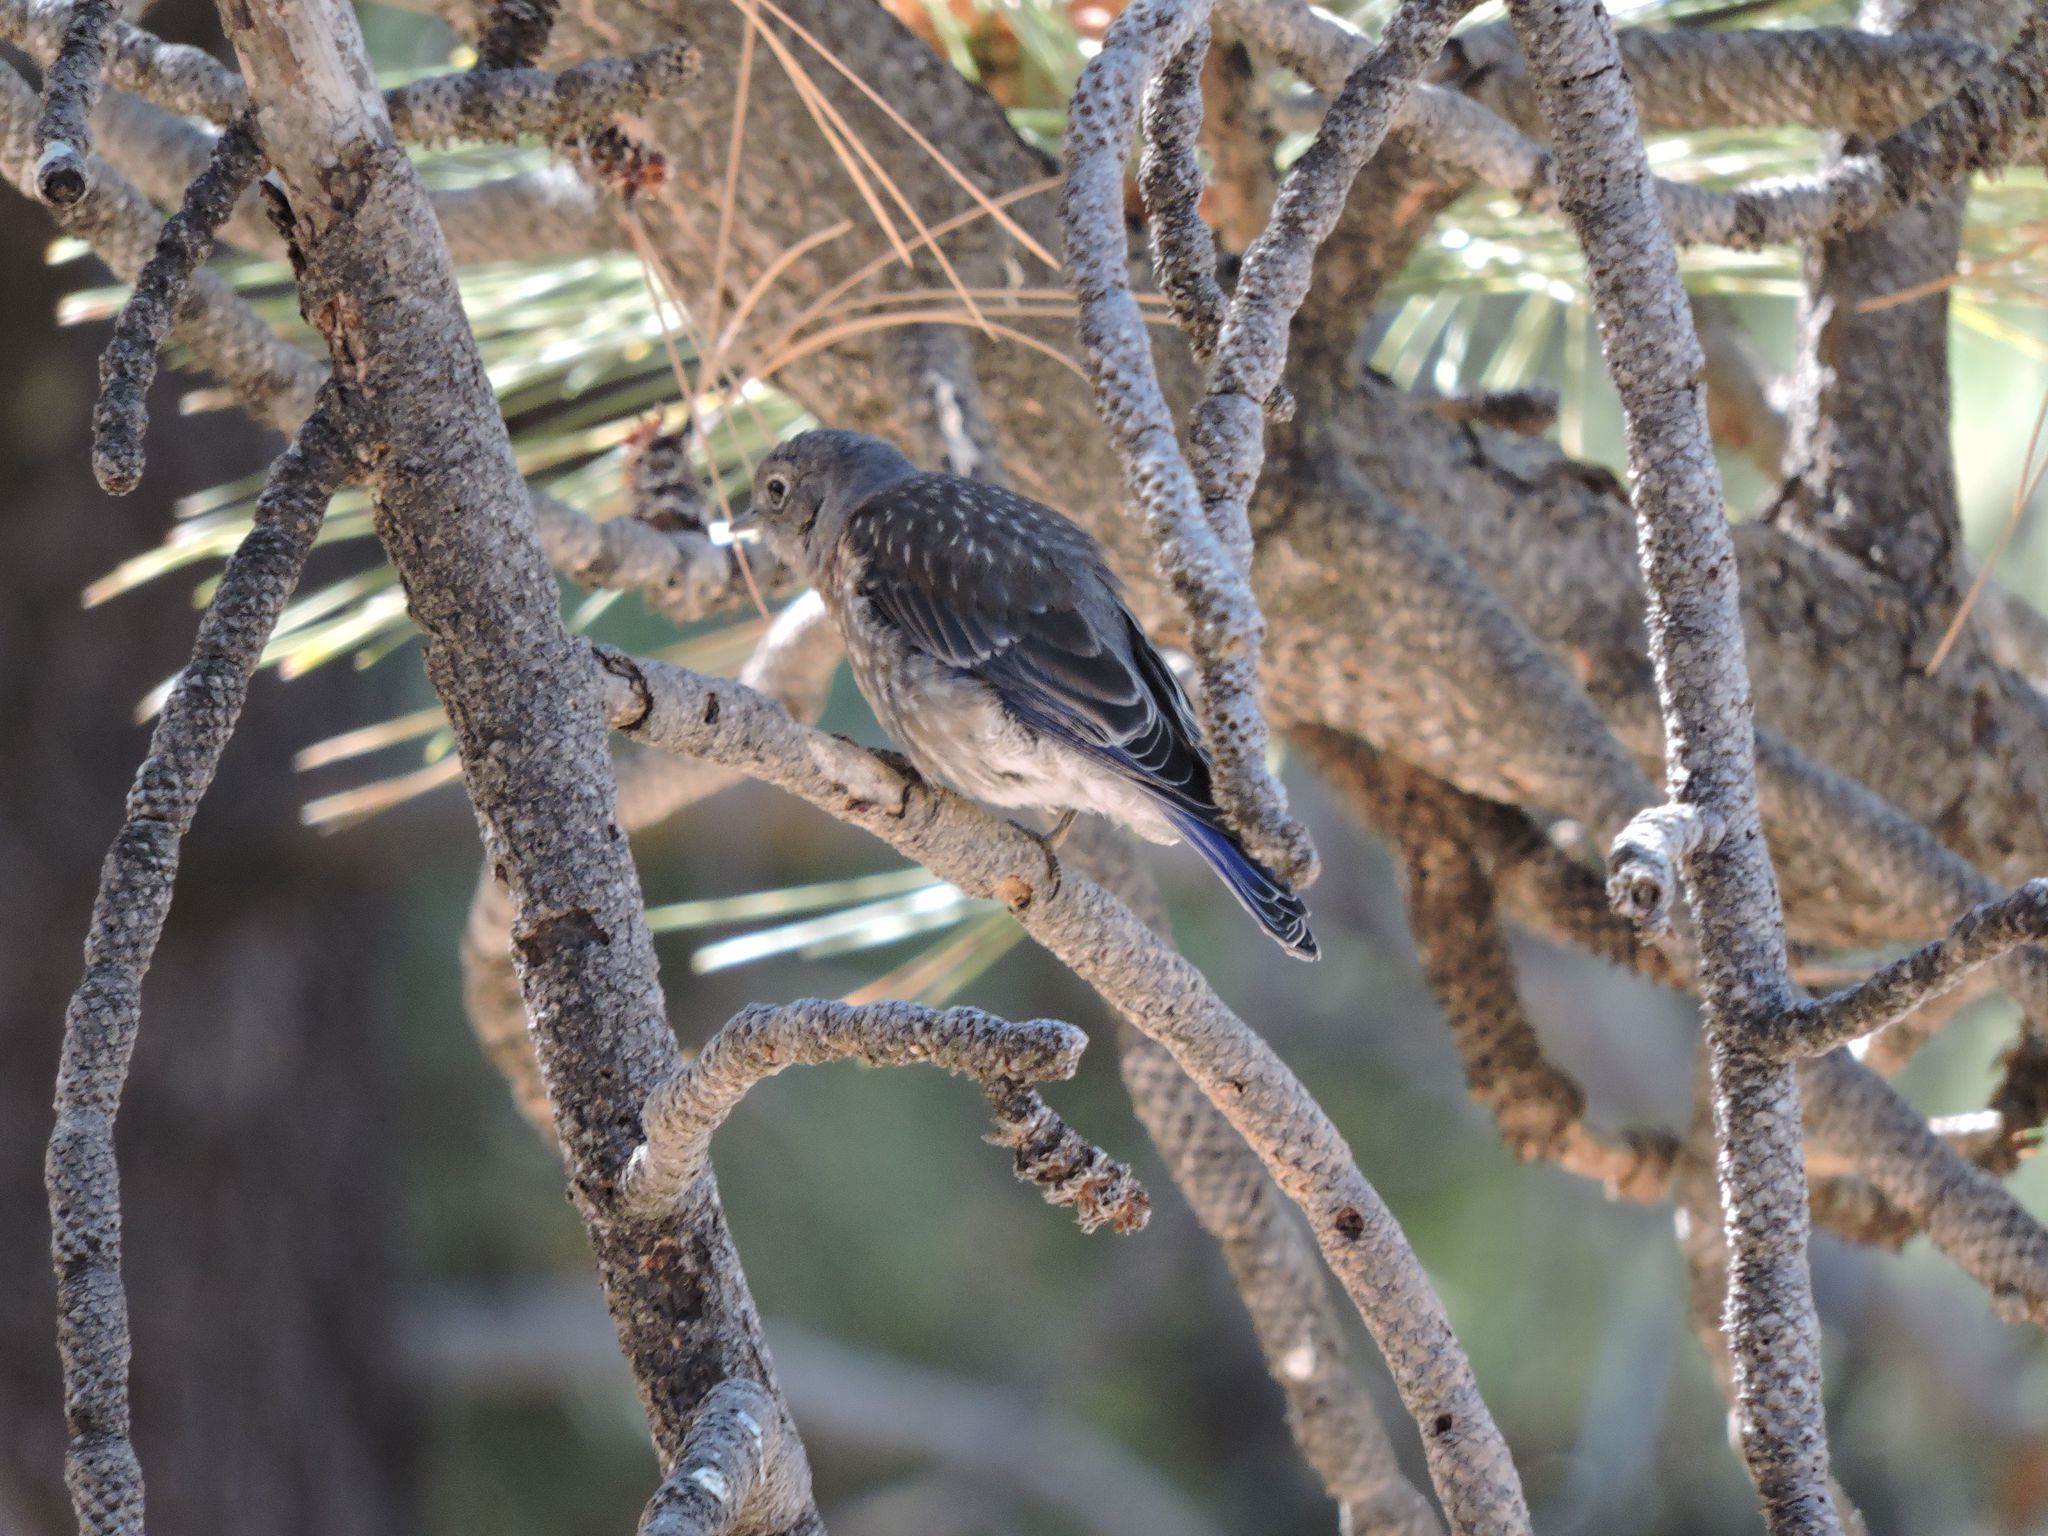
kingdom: Animalia
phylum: Chordata
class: Aves
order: Passeriformes
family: Turdidae
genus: Sialia
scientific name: Sialia mexicana
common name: Western bluebird
